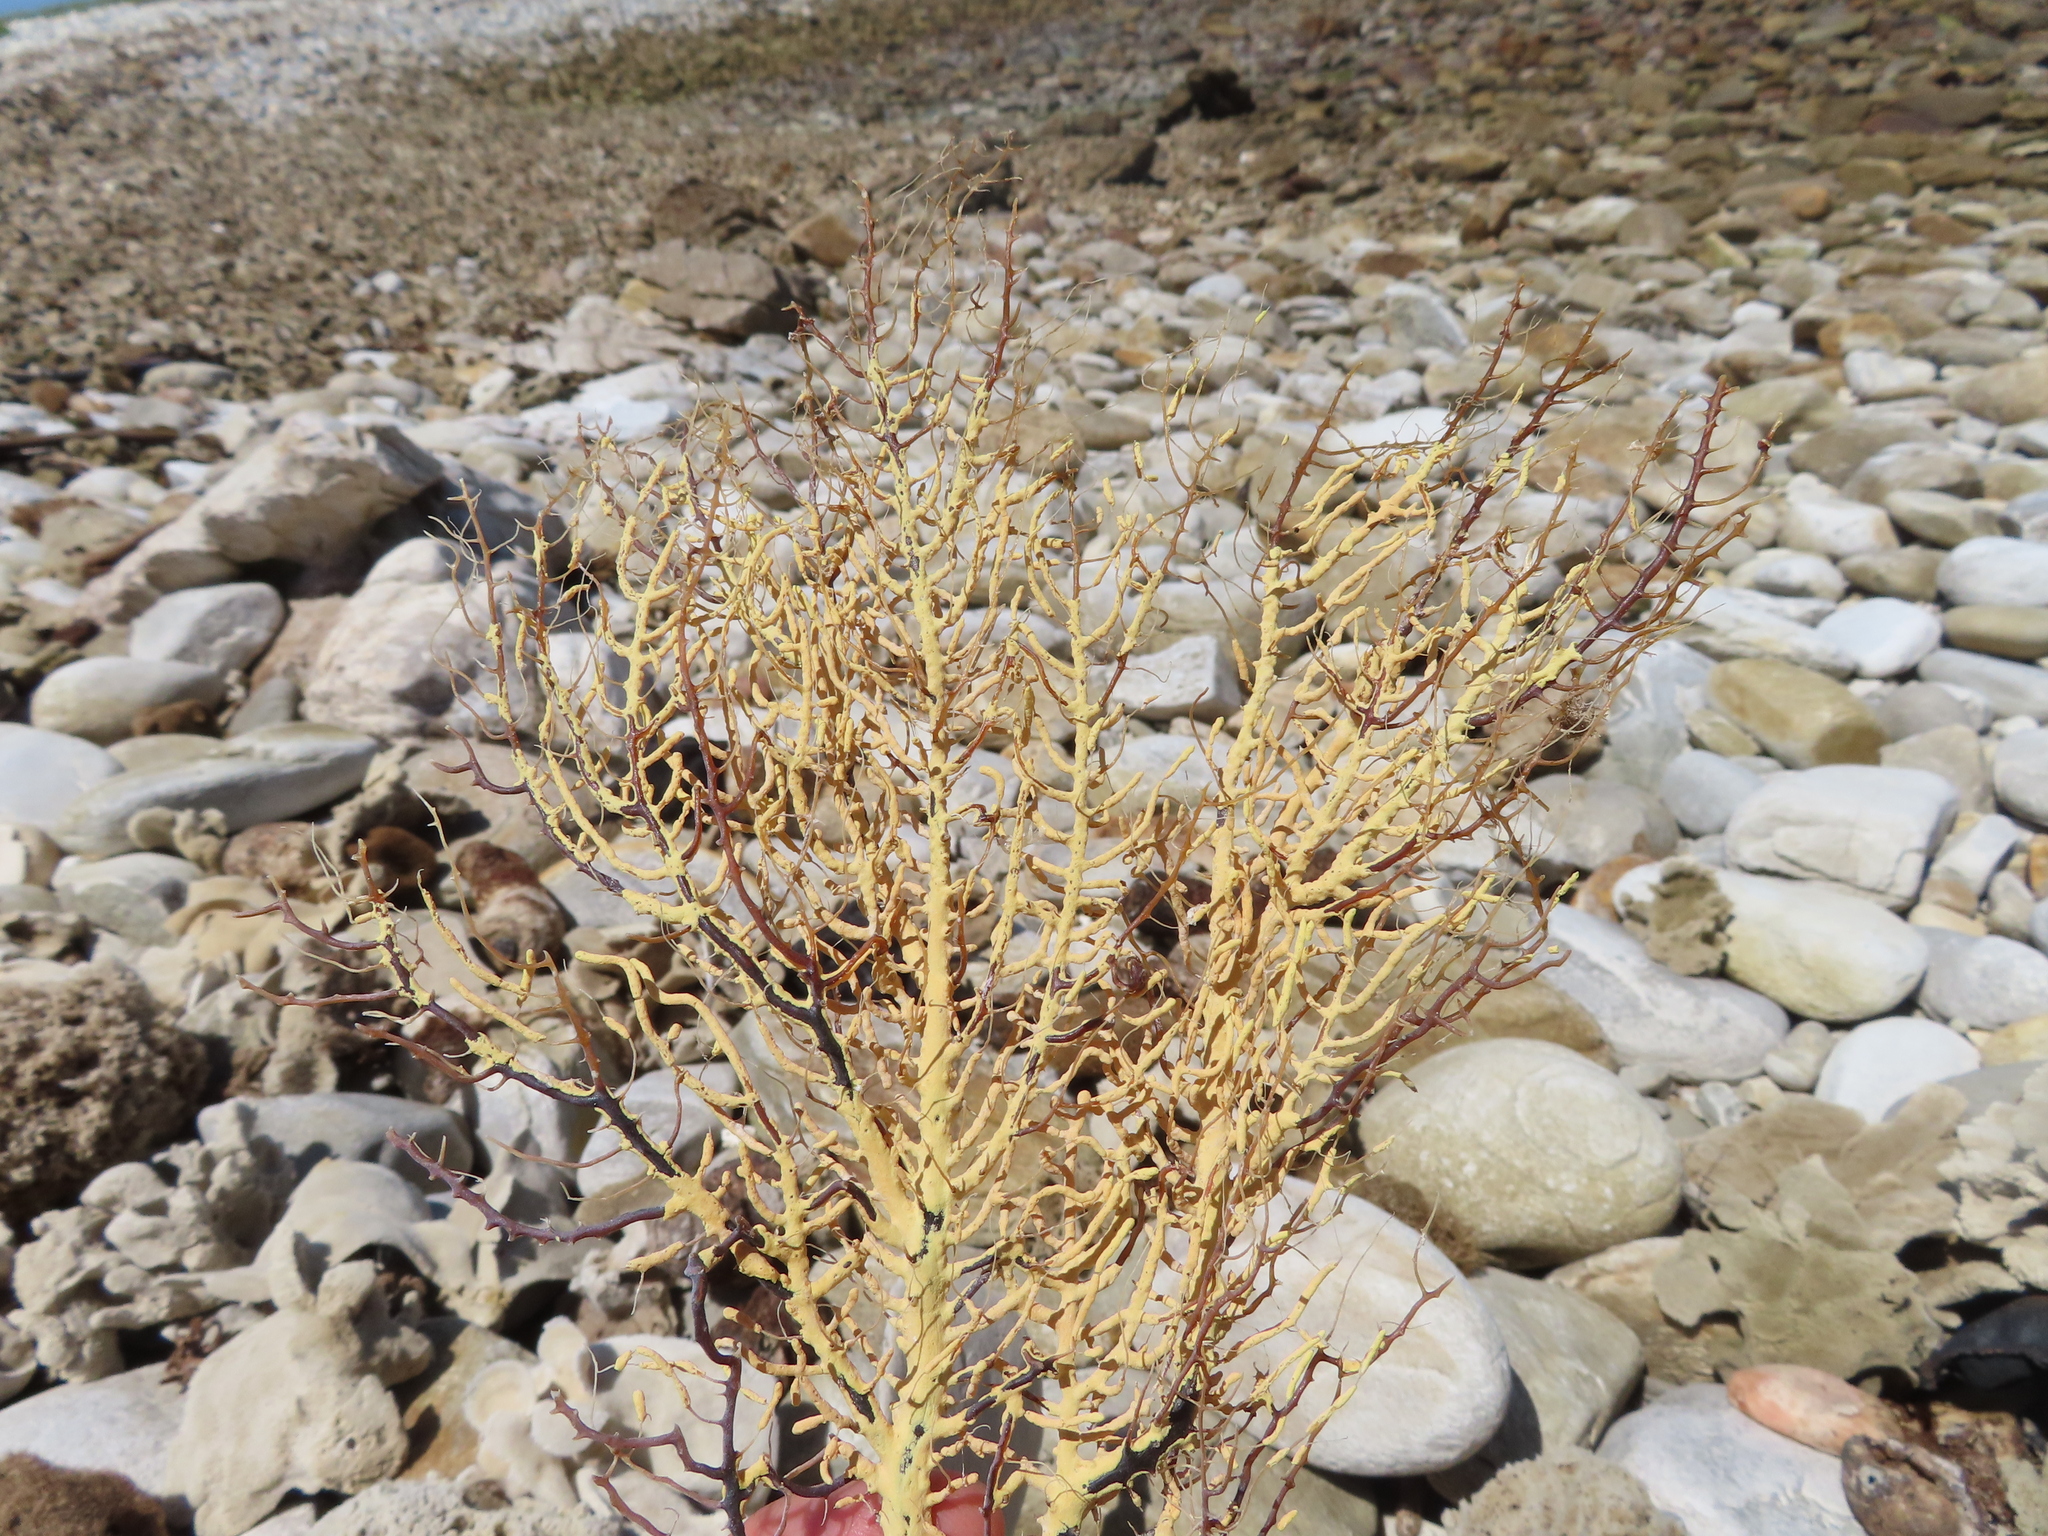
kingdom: Animalia
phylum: Cnidaria
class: Anthozoa
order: Malacalcyonacea
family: Gorgoniidae
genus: Leptogorgia
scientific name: Leptogorgia palma
